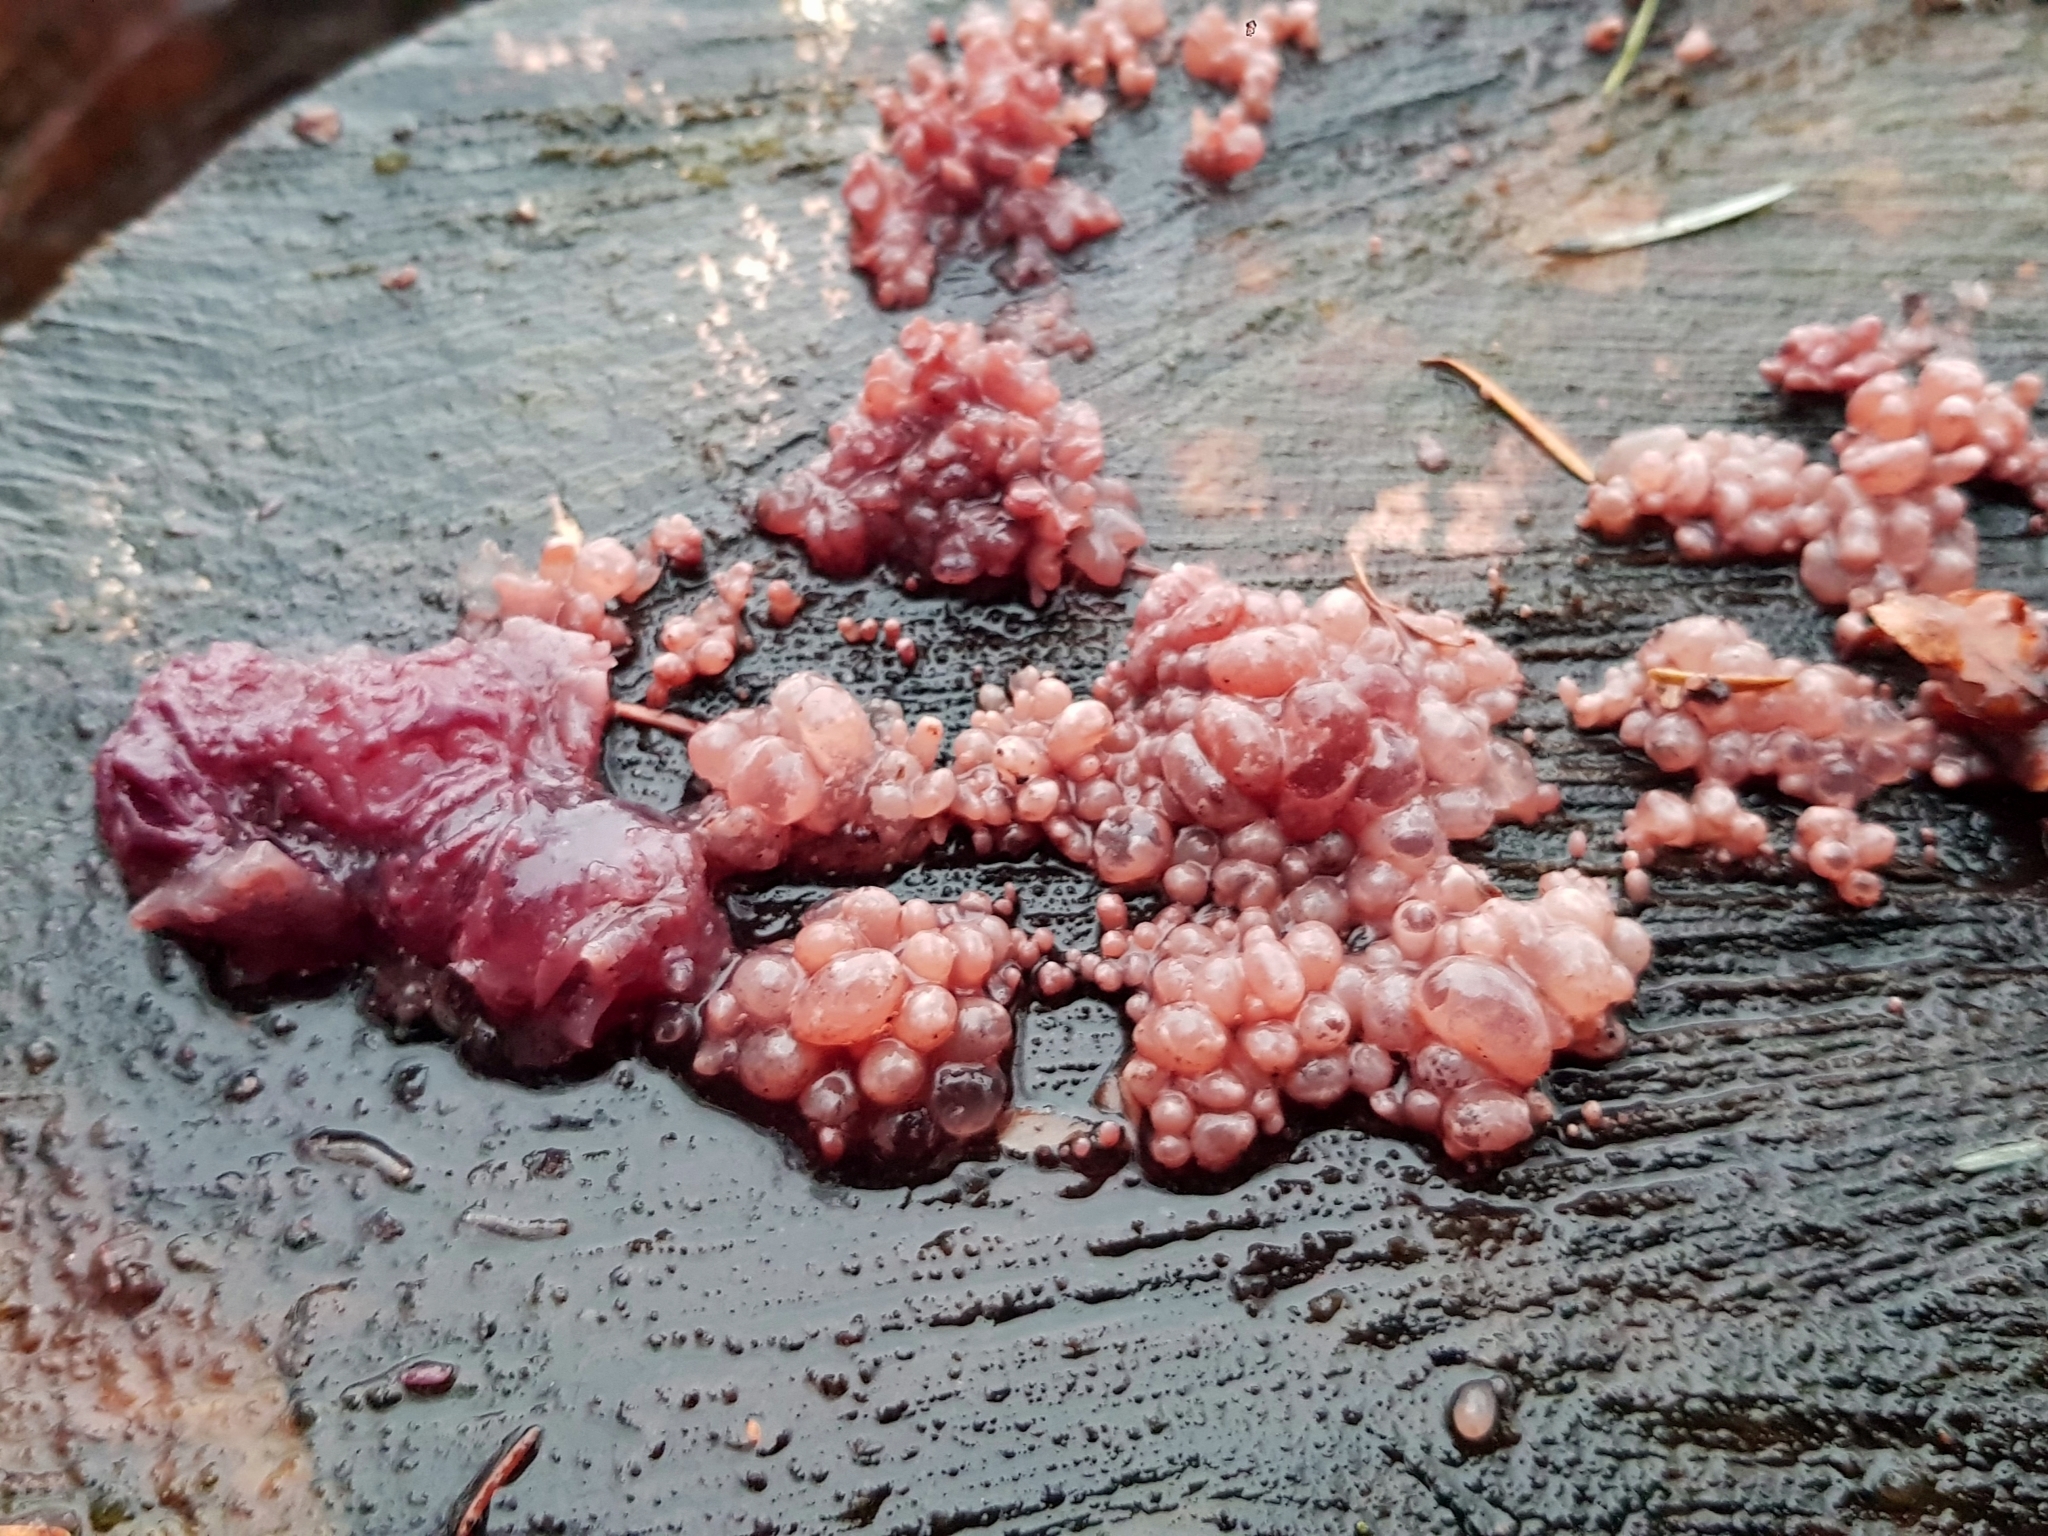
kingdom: Fungi
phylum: Ascomycota
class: Leotiomycetes
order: Helotiales
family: Gelatinodiscaceae
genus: Ascocoryne
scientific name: Ascocoryne sarcoides
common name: Purple jellydisc
